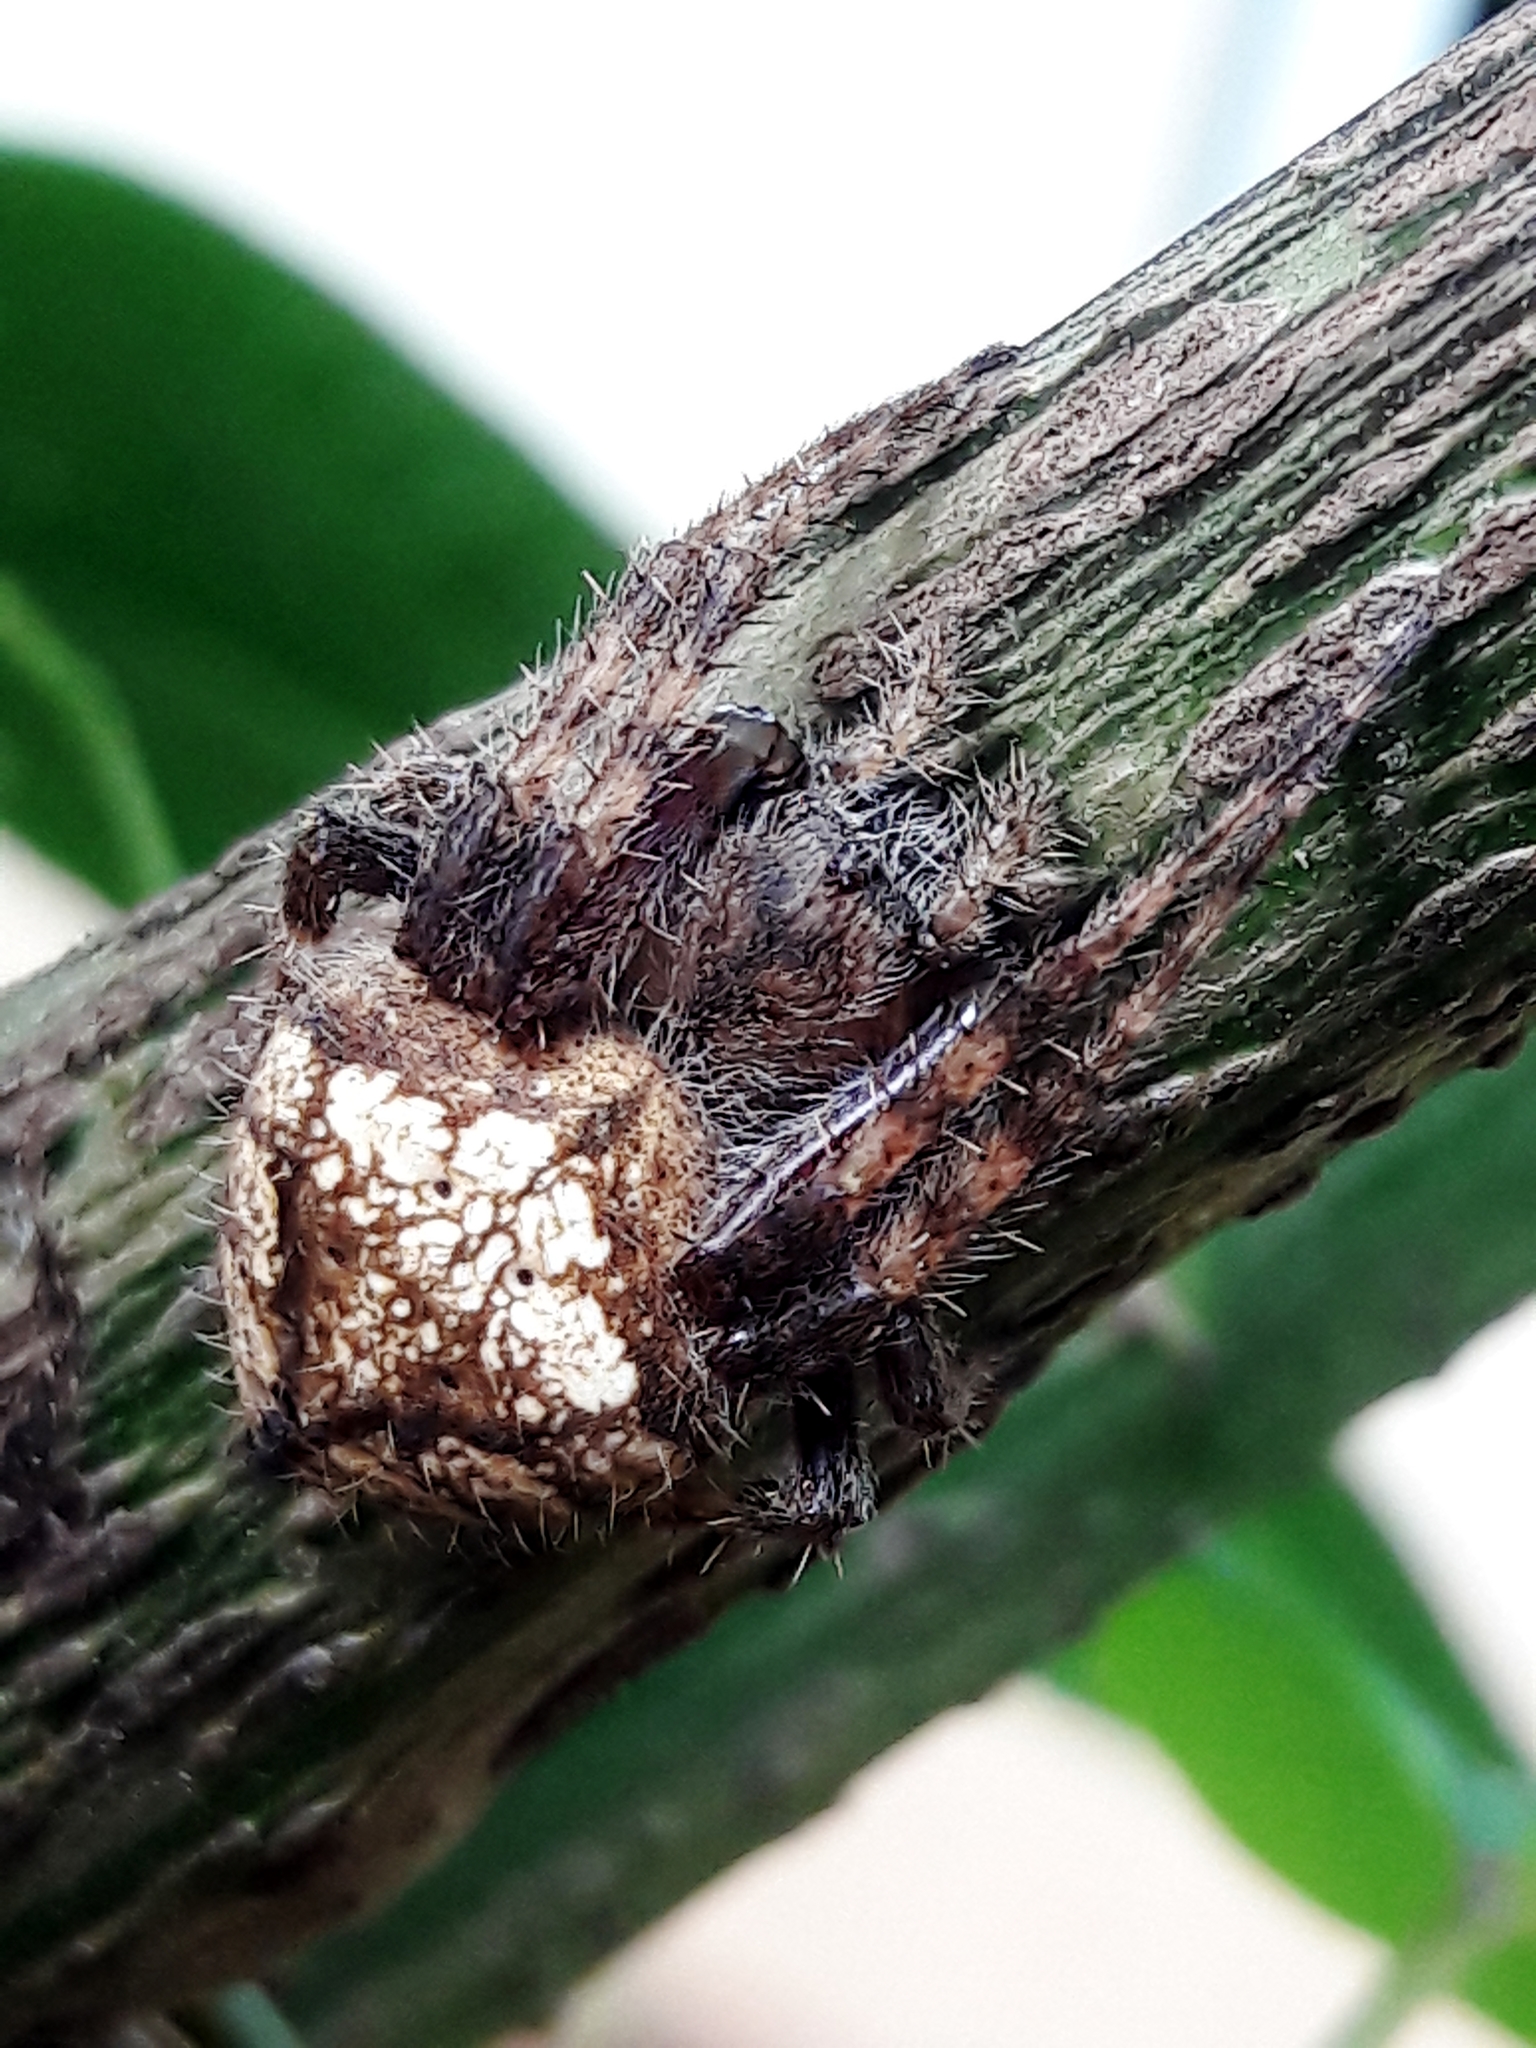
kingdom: Animalia
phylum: Arthropoda
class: Arachnida
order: Araneae
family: Araneidae
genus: Eriophora
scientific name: Eriophora edax
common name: Orb weavers
